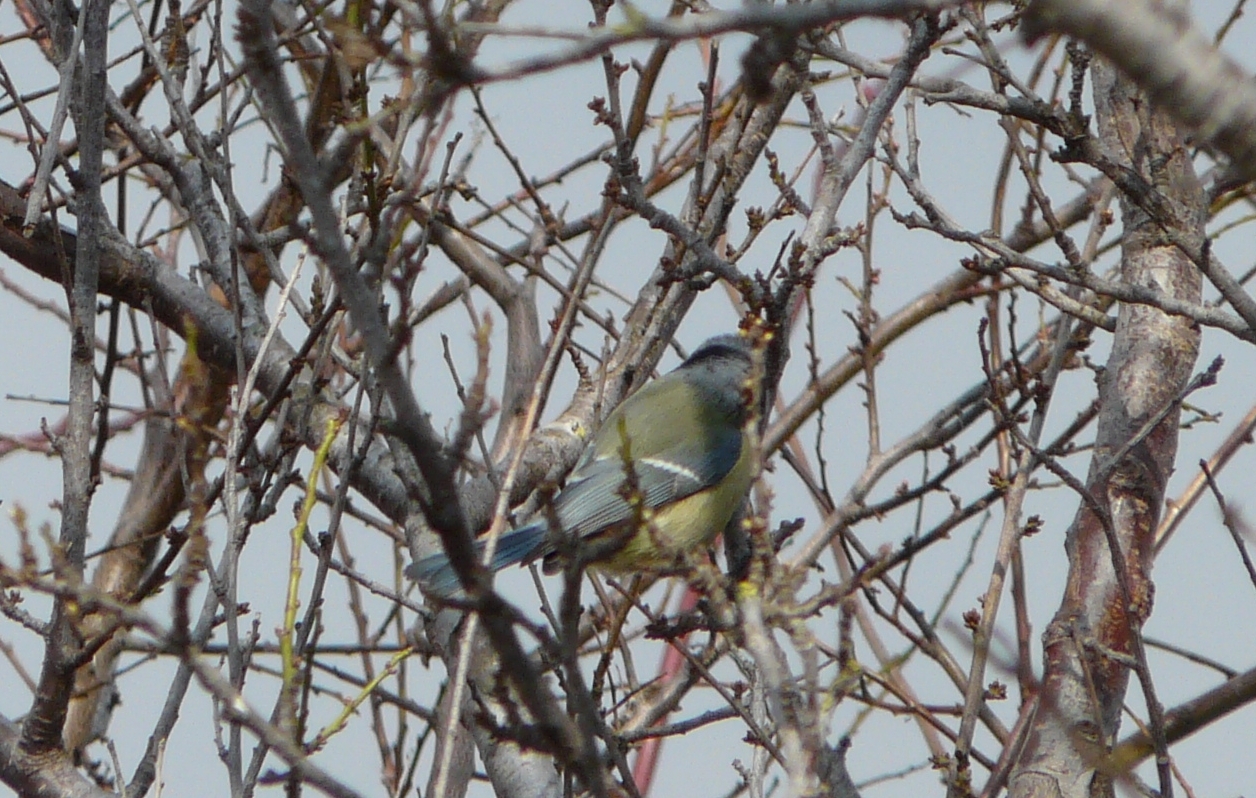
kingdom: Animalia
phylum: Chordata
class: Aves
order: Passeriformes
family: Paridae
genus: Cyanistes
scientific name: Cyanistes caeruleus
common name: Eurasian blue tit
